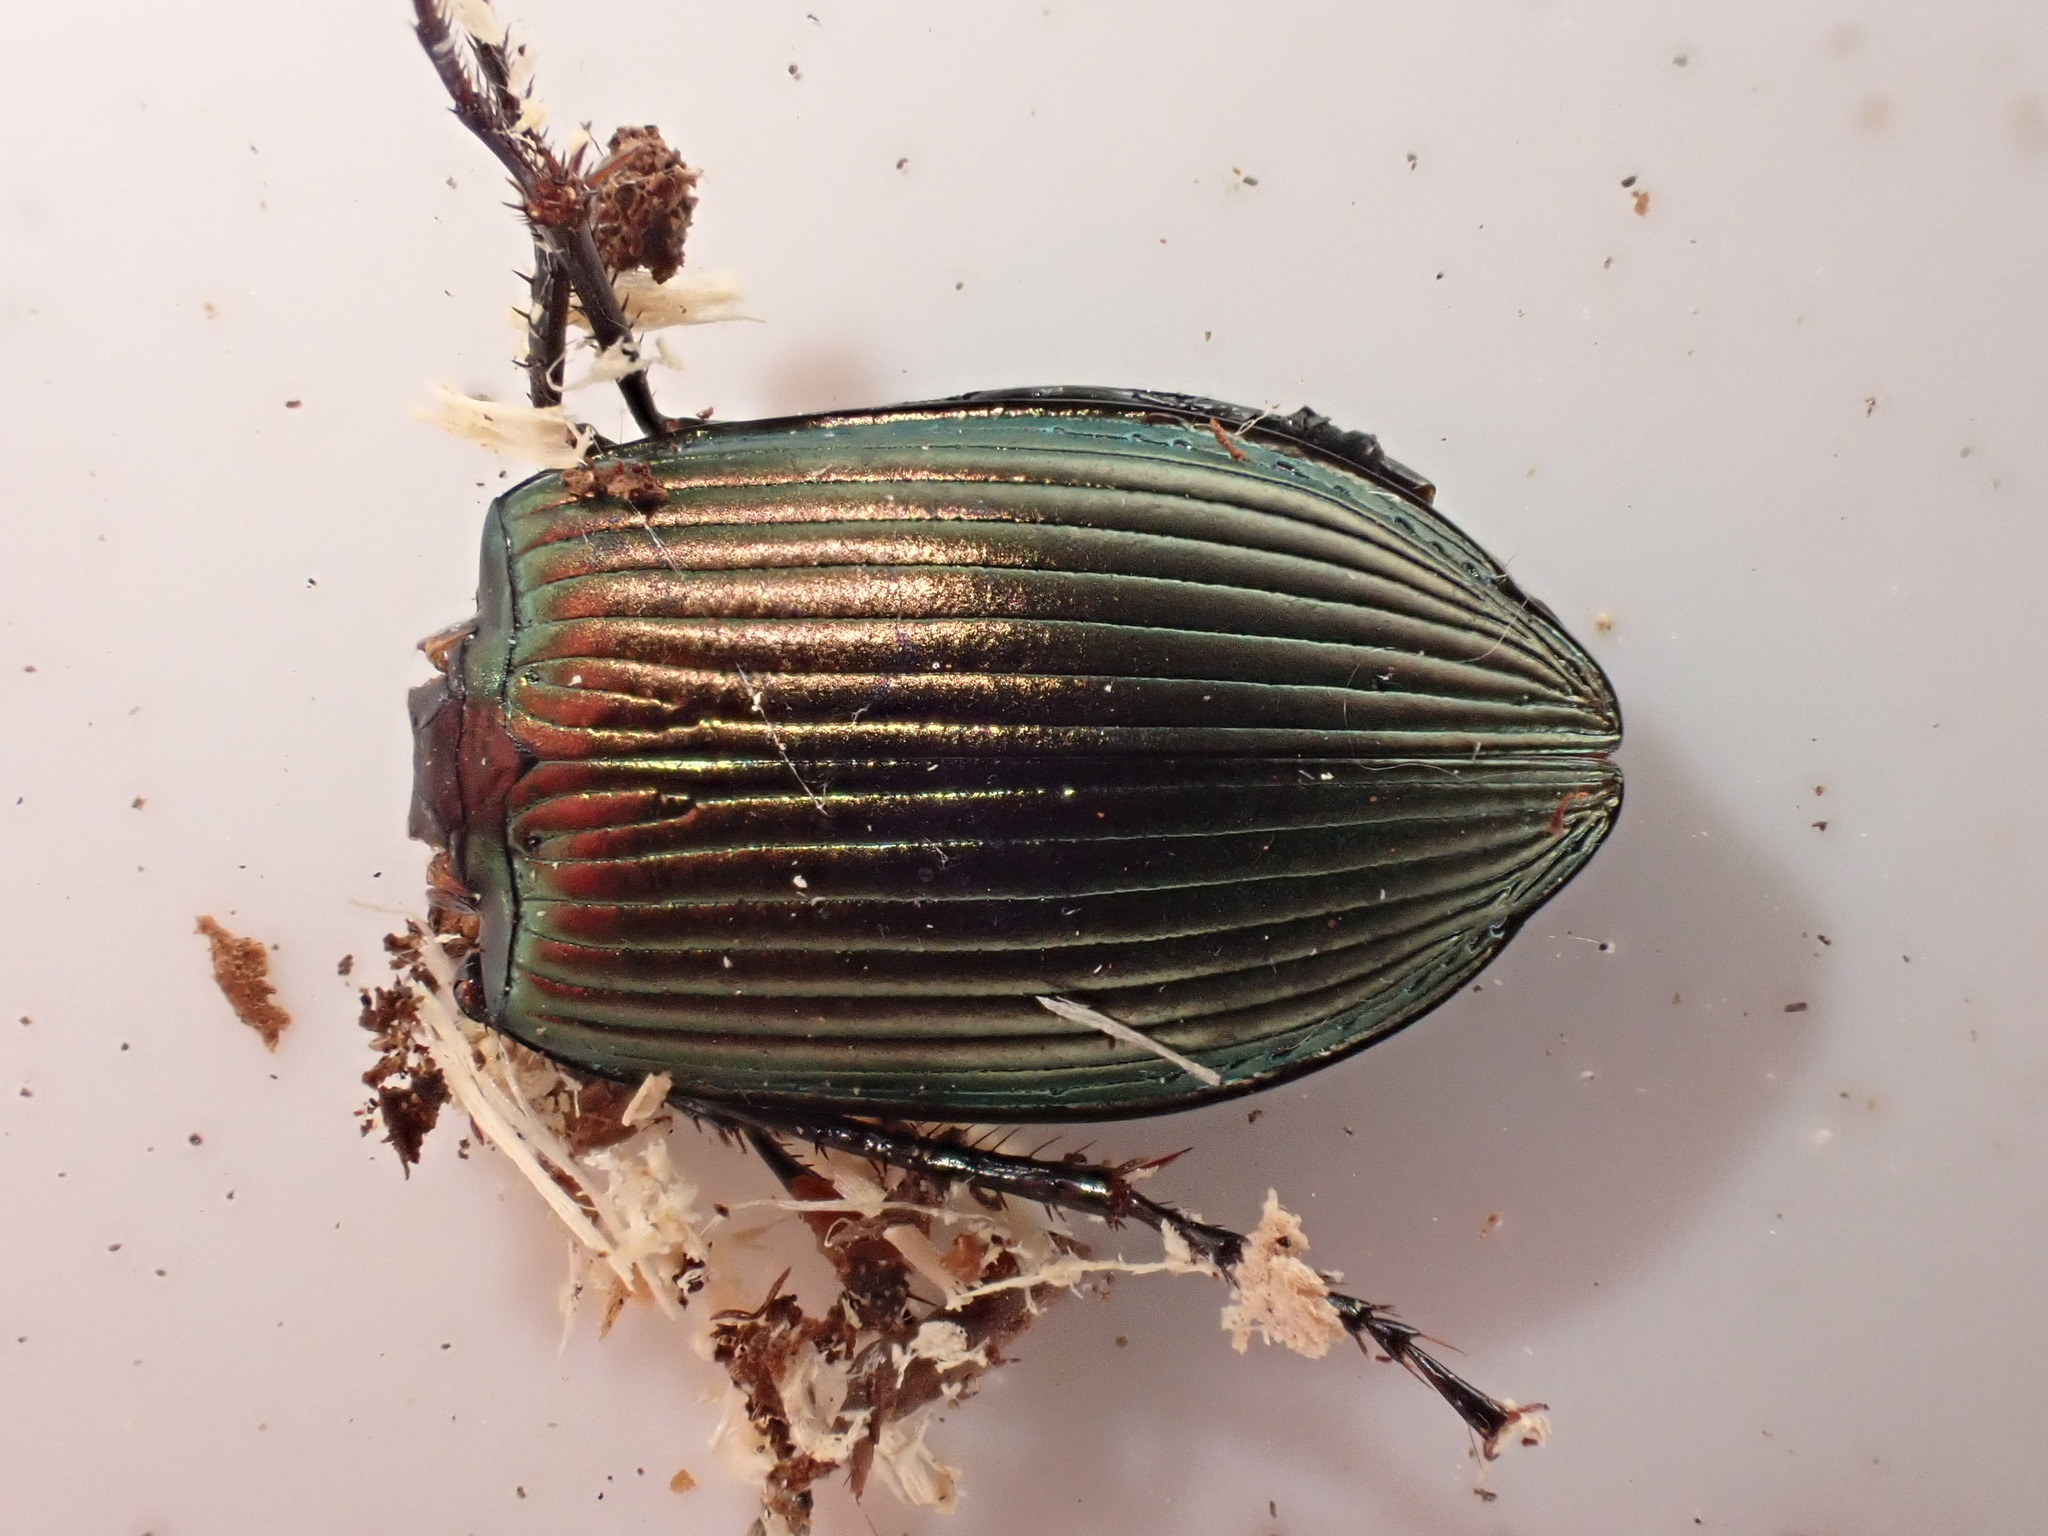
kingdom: Animalia
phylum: Arthropoda
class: Insecta
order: Coleoptera
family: Carabidae
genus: Poecilus
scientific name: Poecilus
